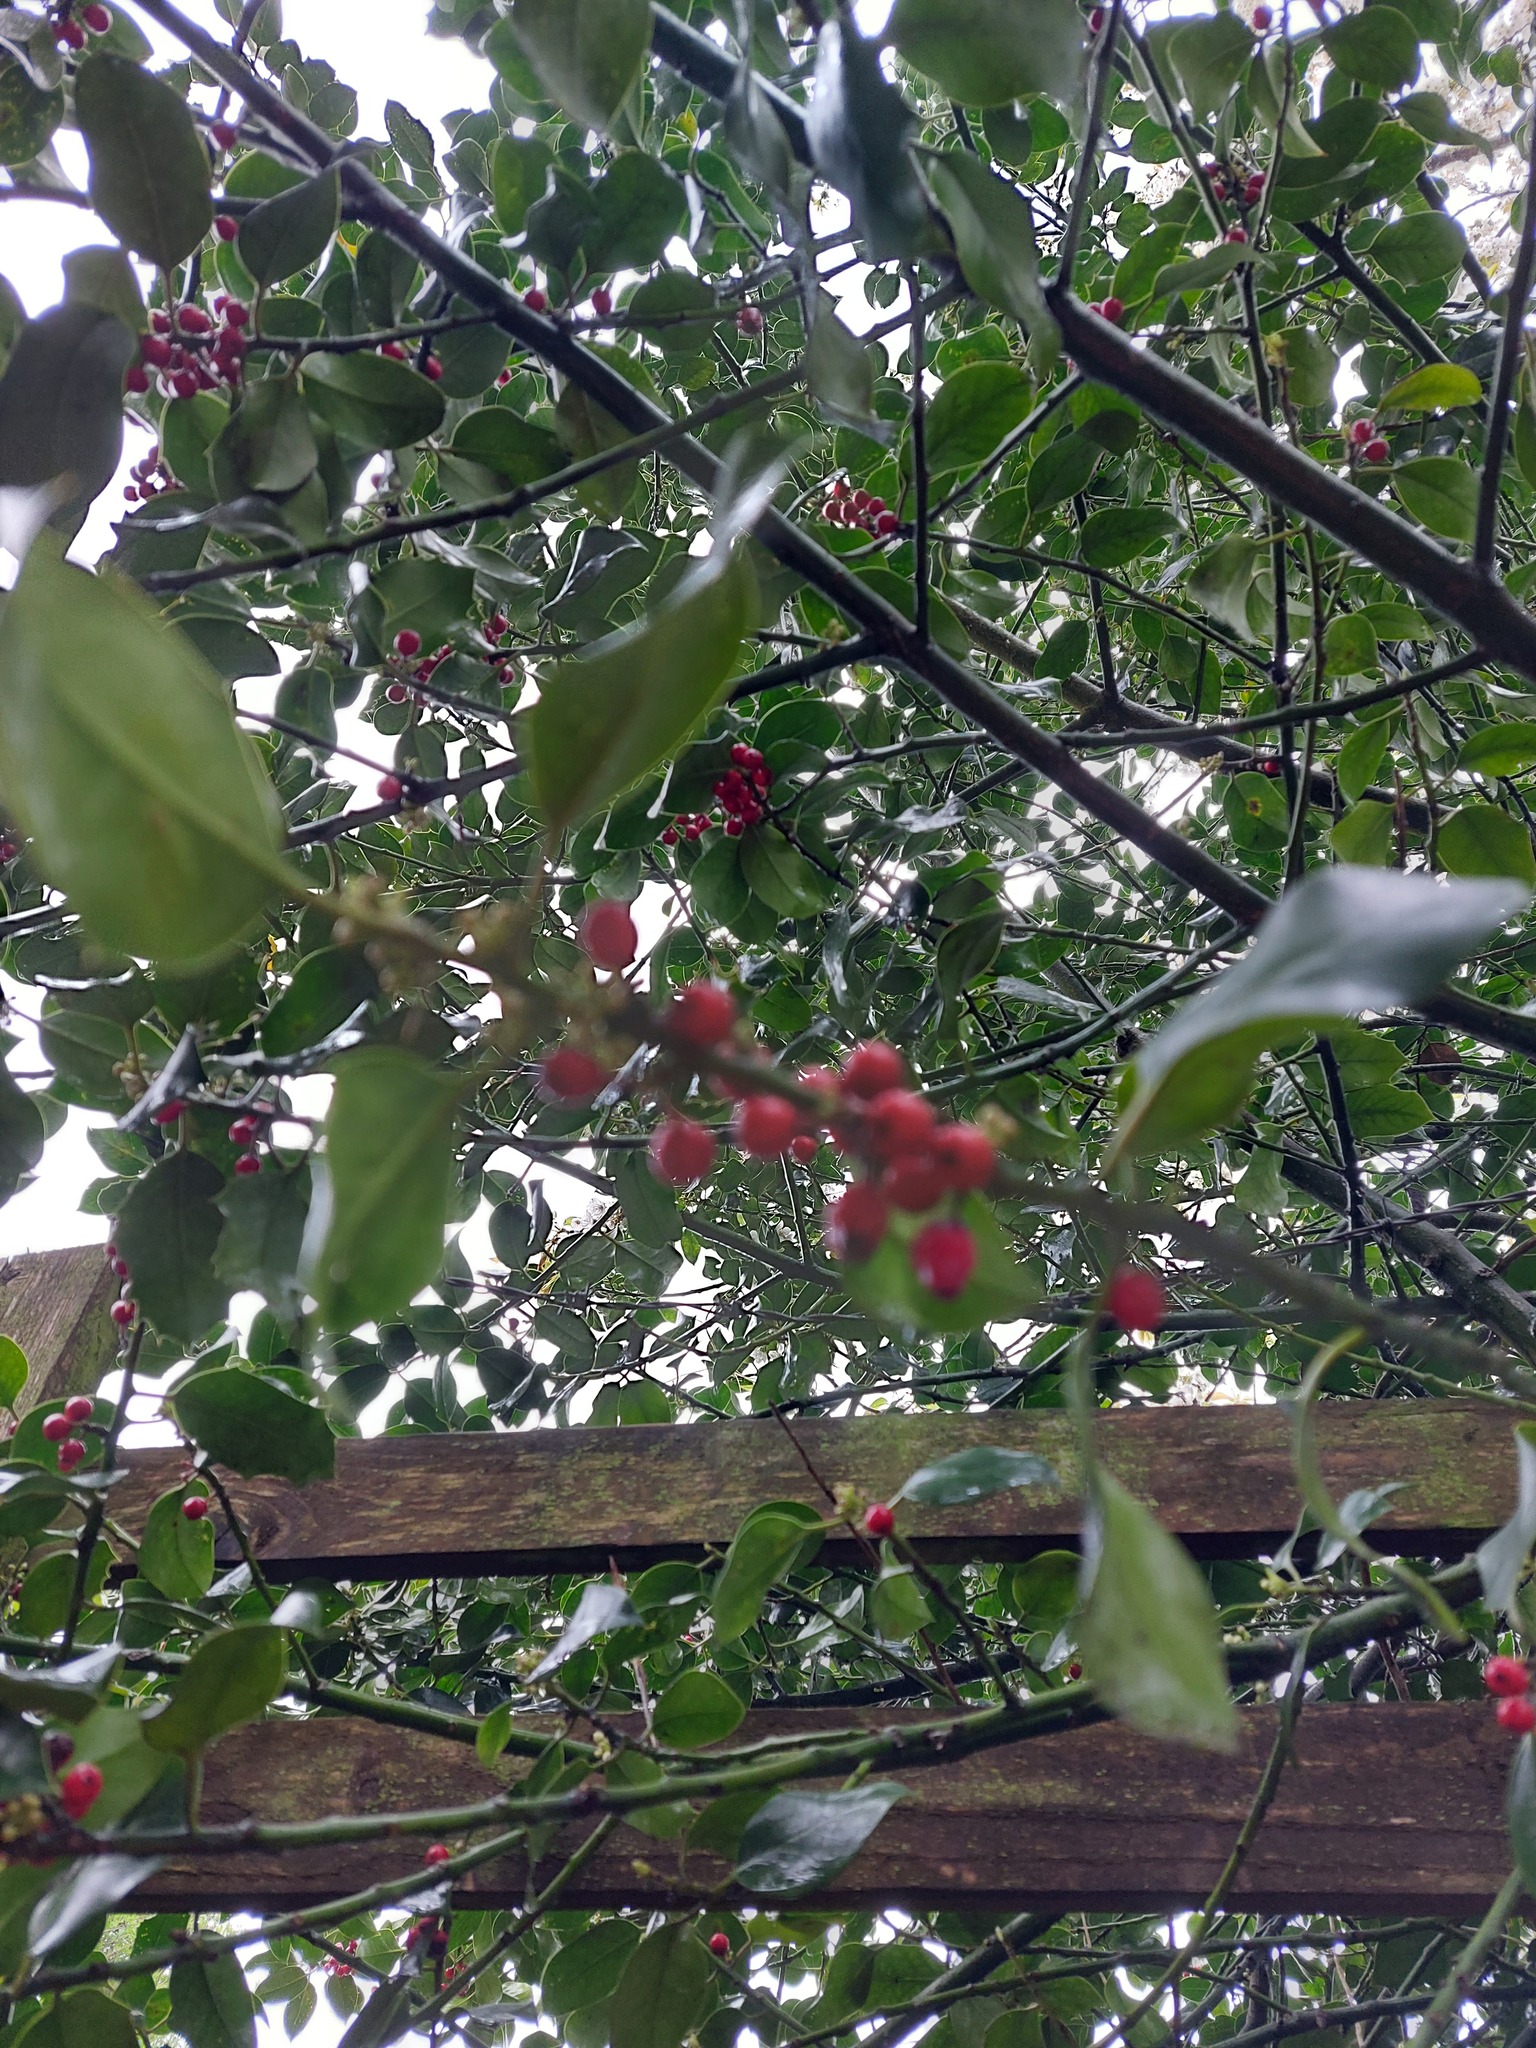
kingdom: Plantae
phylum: Tracheophyta
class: Magnoliopsida
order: Aquifoliales
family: Aquifoliaceae
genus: Ilex
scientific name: Ilex aquifolium
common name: English holly
